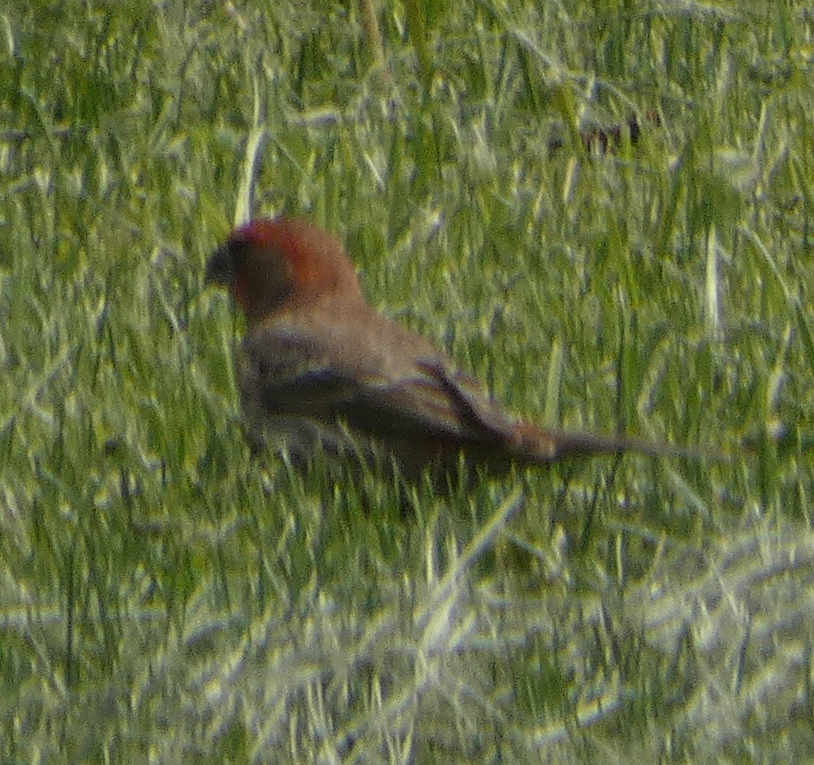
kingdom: Animalia
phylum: Chordata
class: Aves
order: Passeriformes
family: Fringillidae
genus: Haemorhous
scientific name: Haemorhous mexicanus
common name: House finch
